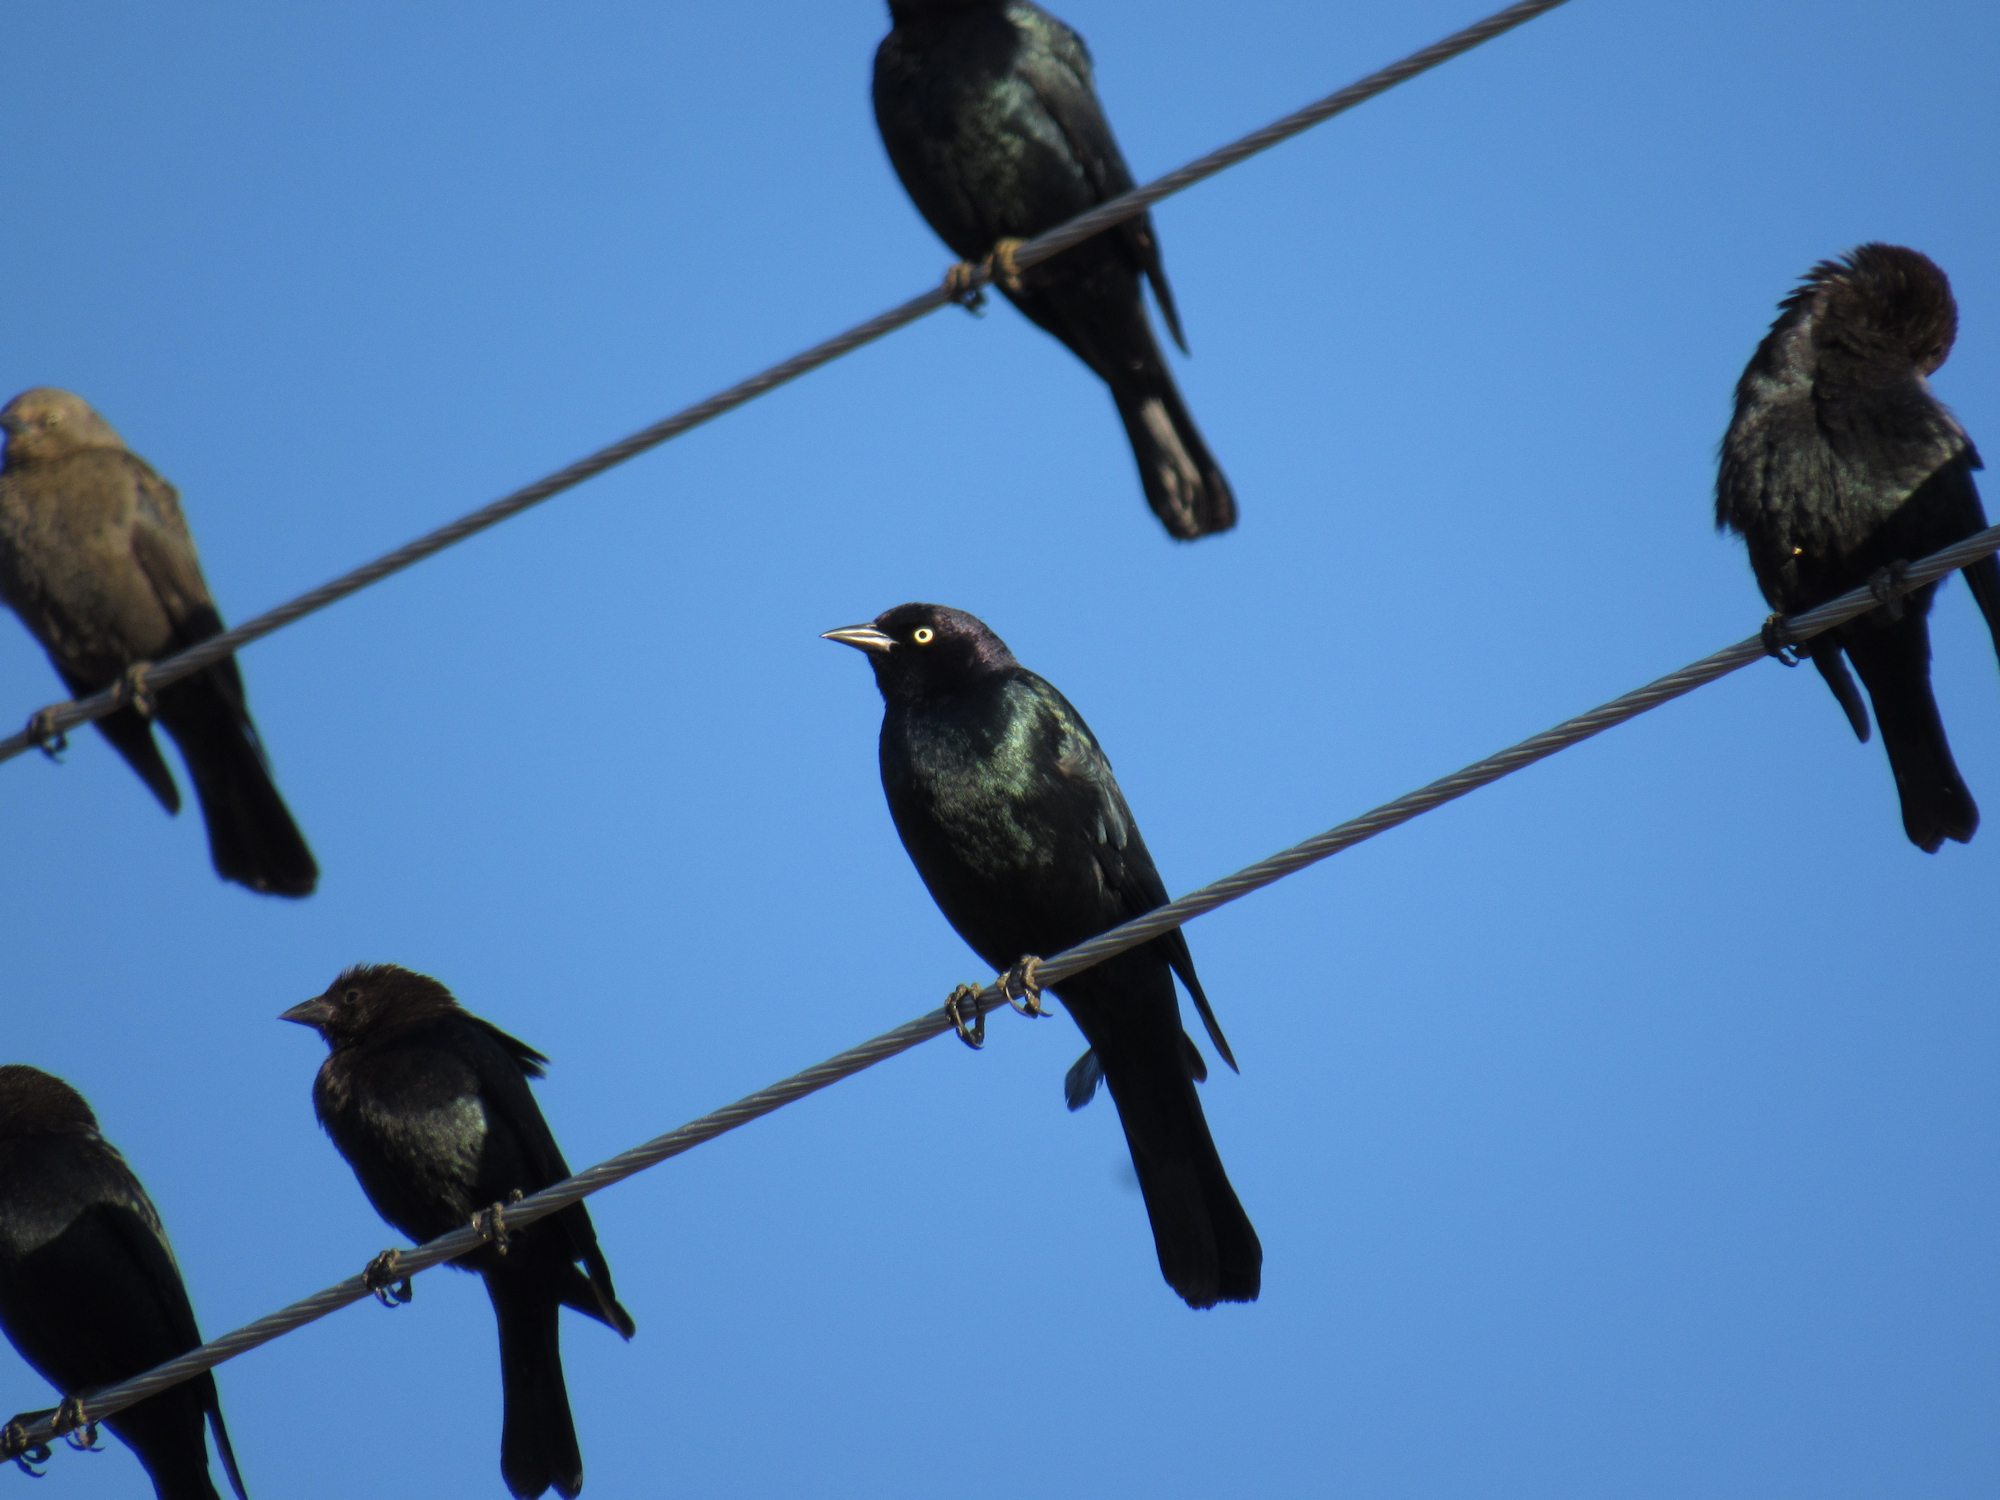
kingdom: Animalia
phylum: Chordata
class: Aves
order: Passeriformes
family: Icteridae
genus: Euphagus
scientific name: Euphagus cyanocephalus
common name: Brewer's blackbird
